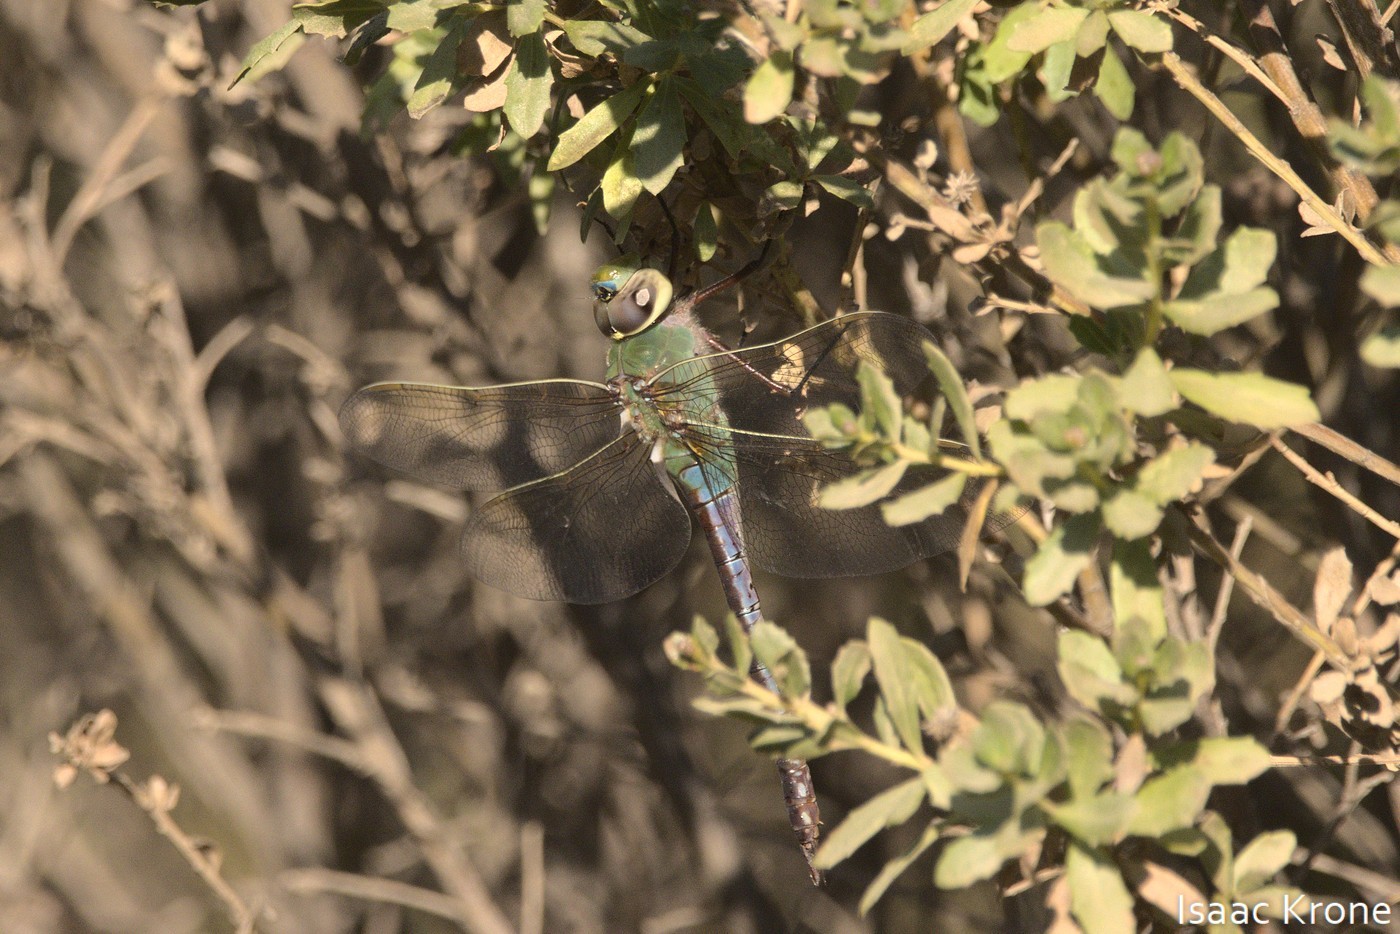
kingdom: Animalia
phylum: Arthropoda
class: Insecta
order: Odonata
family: Aeshnidae
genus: Anax
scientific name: Anax junius
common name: Common green darner
